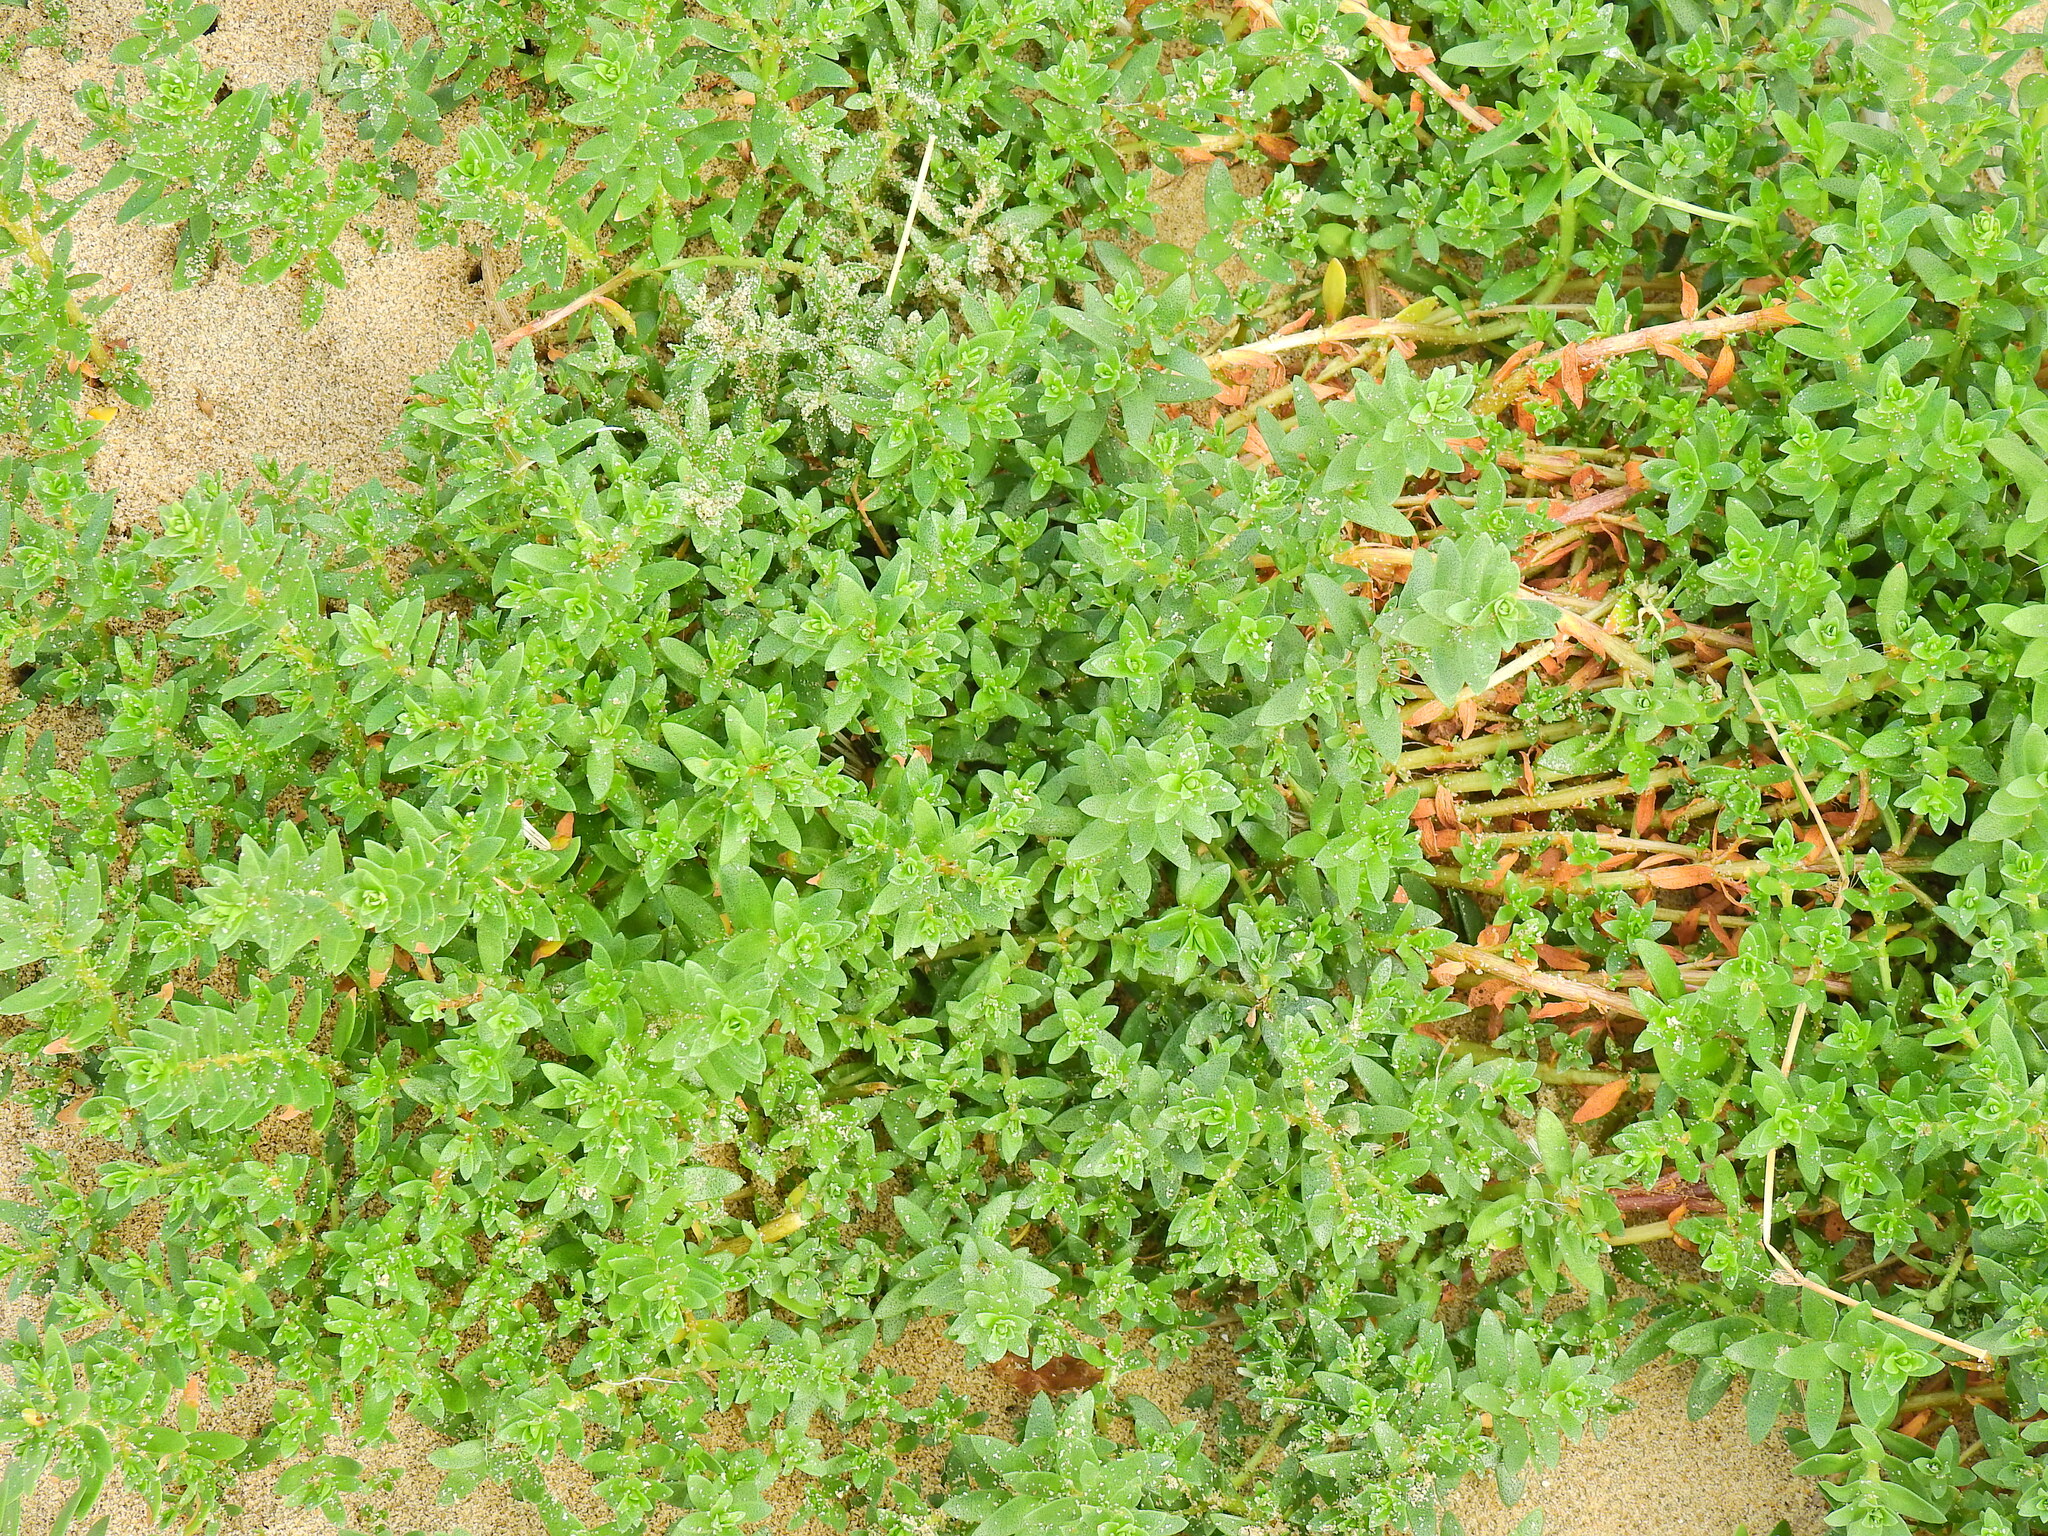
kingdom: Plantae
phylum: Tracheophyta
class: Magnoliopsida
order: Ericales
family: Primulaceae
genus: Lysimachia
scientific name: Lysimachia maritima
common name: Sea milkwort
